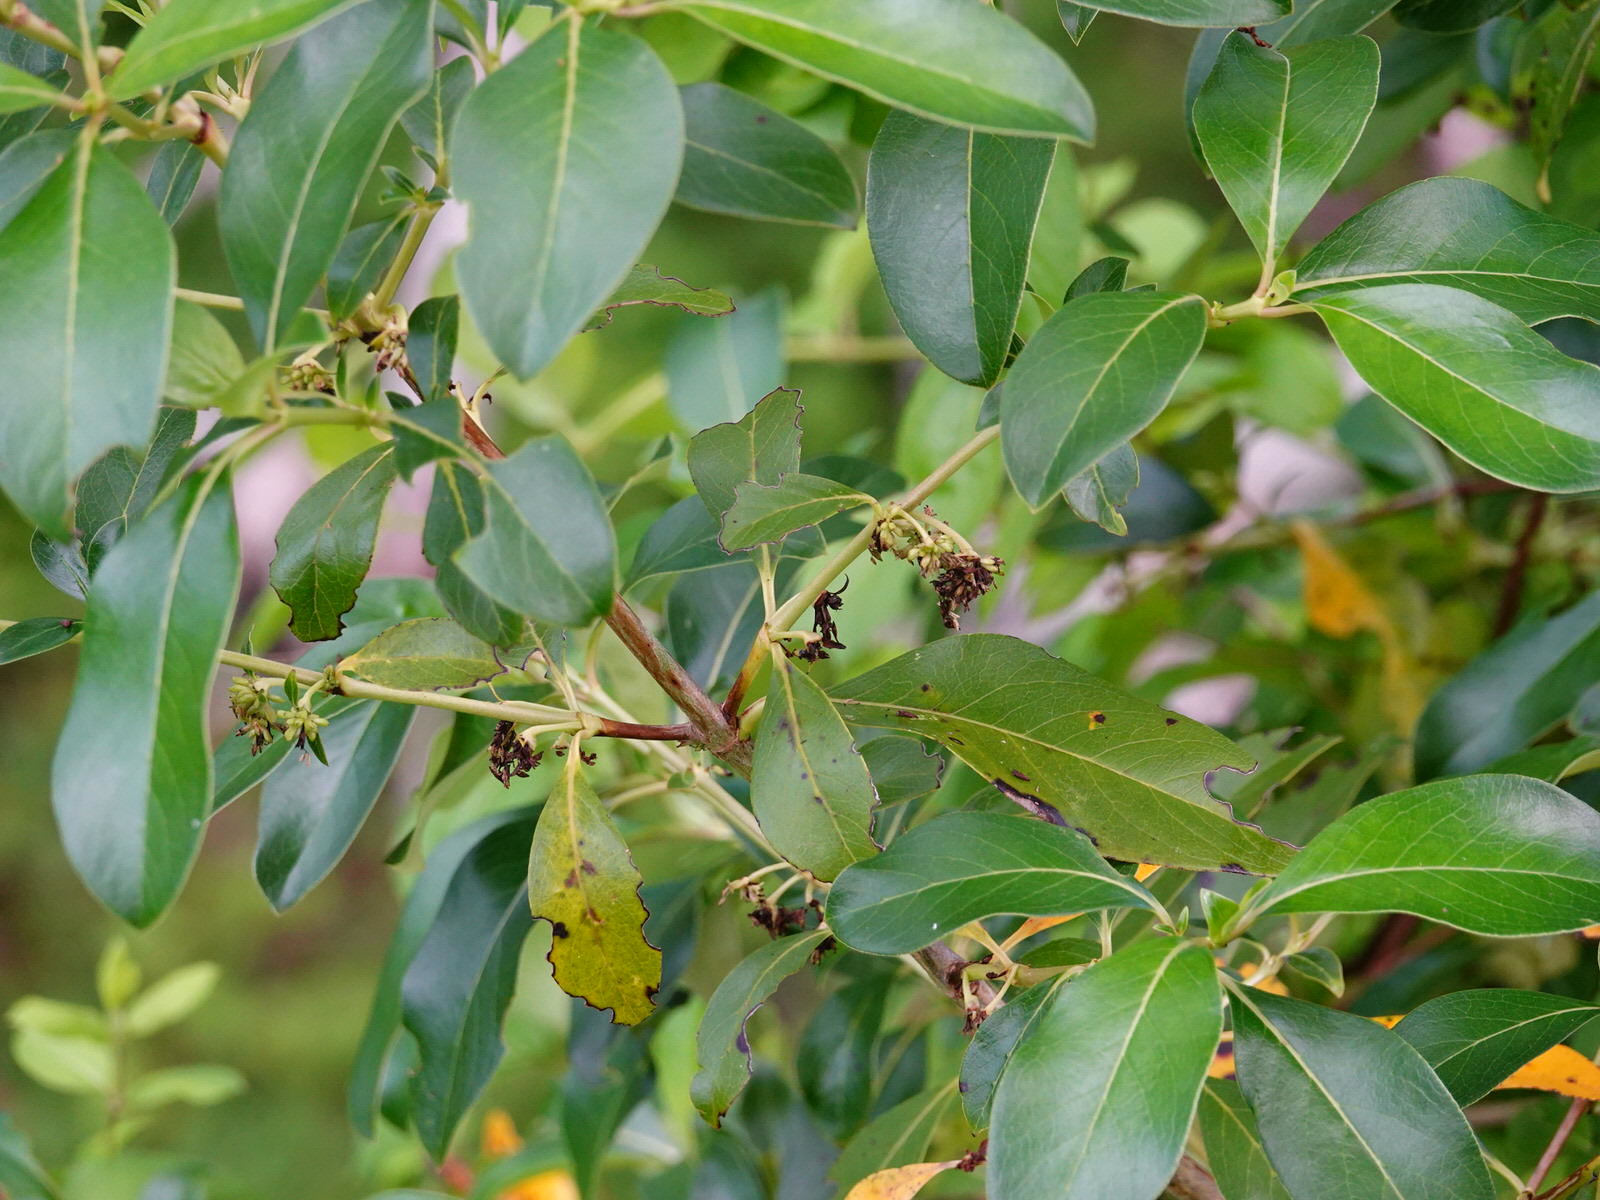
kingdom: Plantae
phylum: Tracheophyta
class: Magnoliopsida
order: Gentianales
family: Rubiaceae
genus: Coprosma
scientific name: Coprosma robusta
